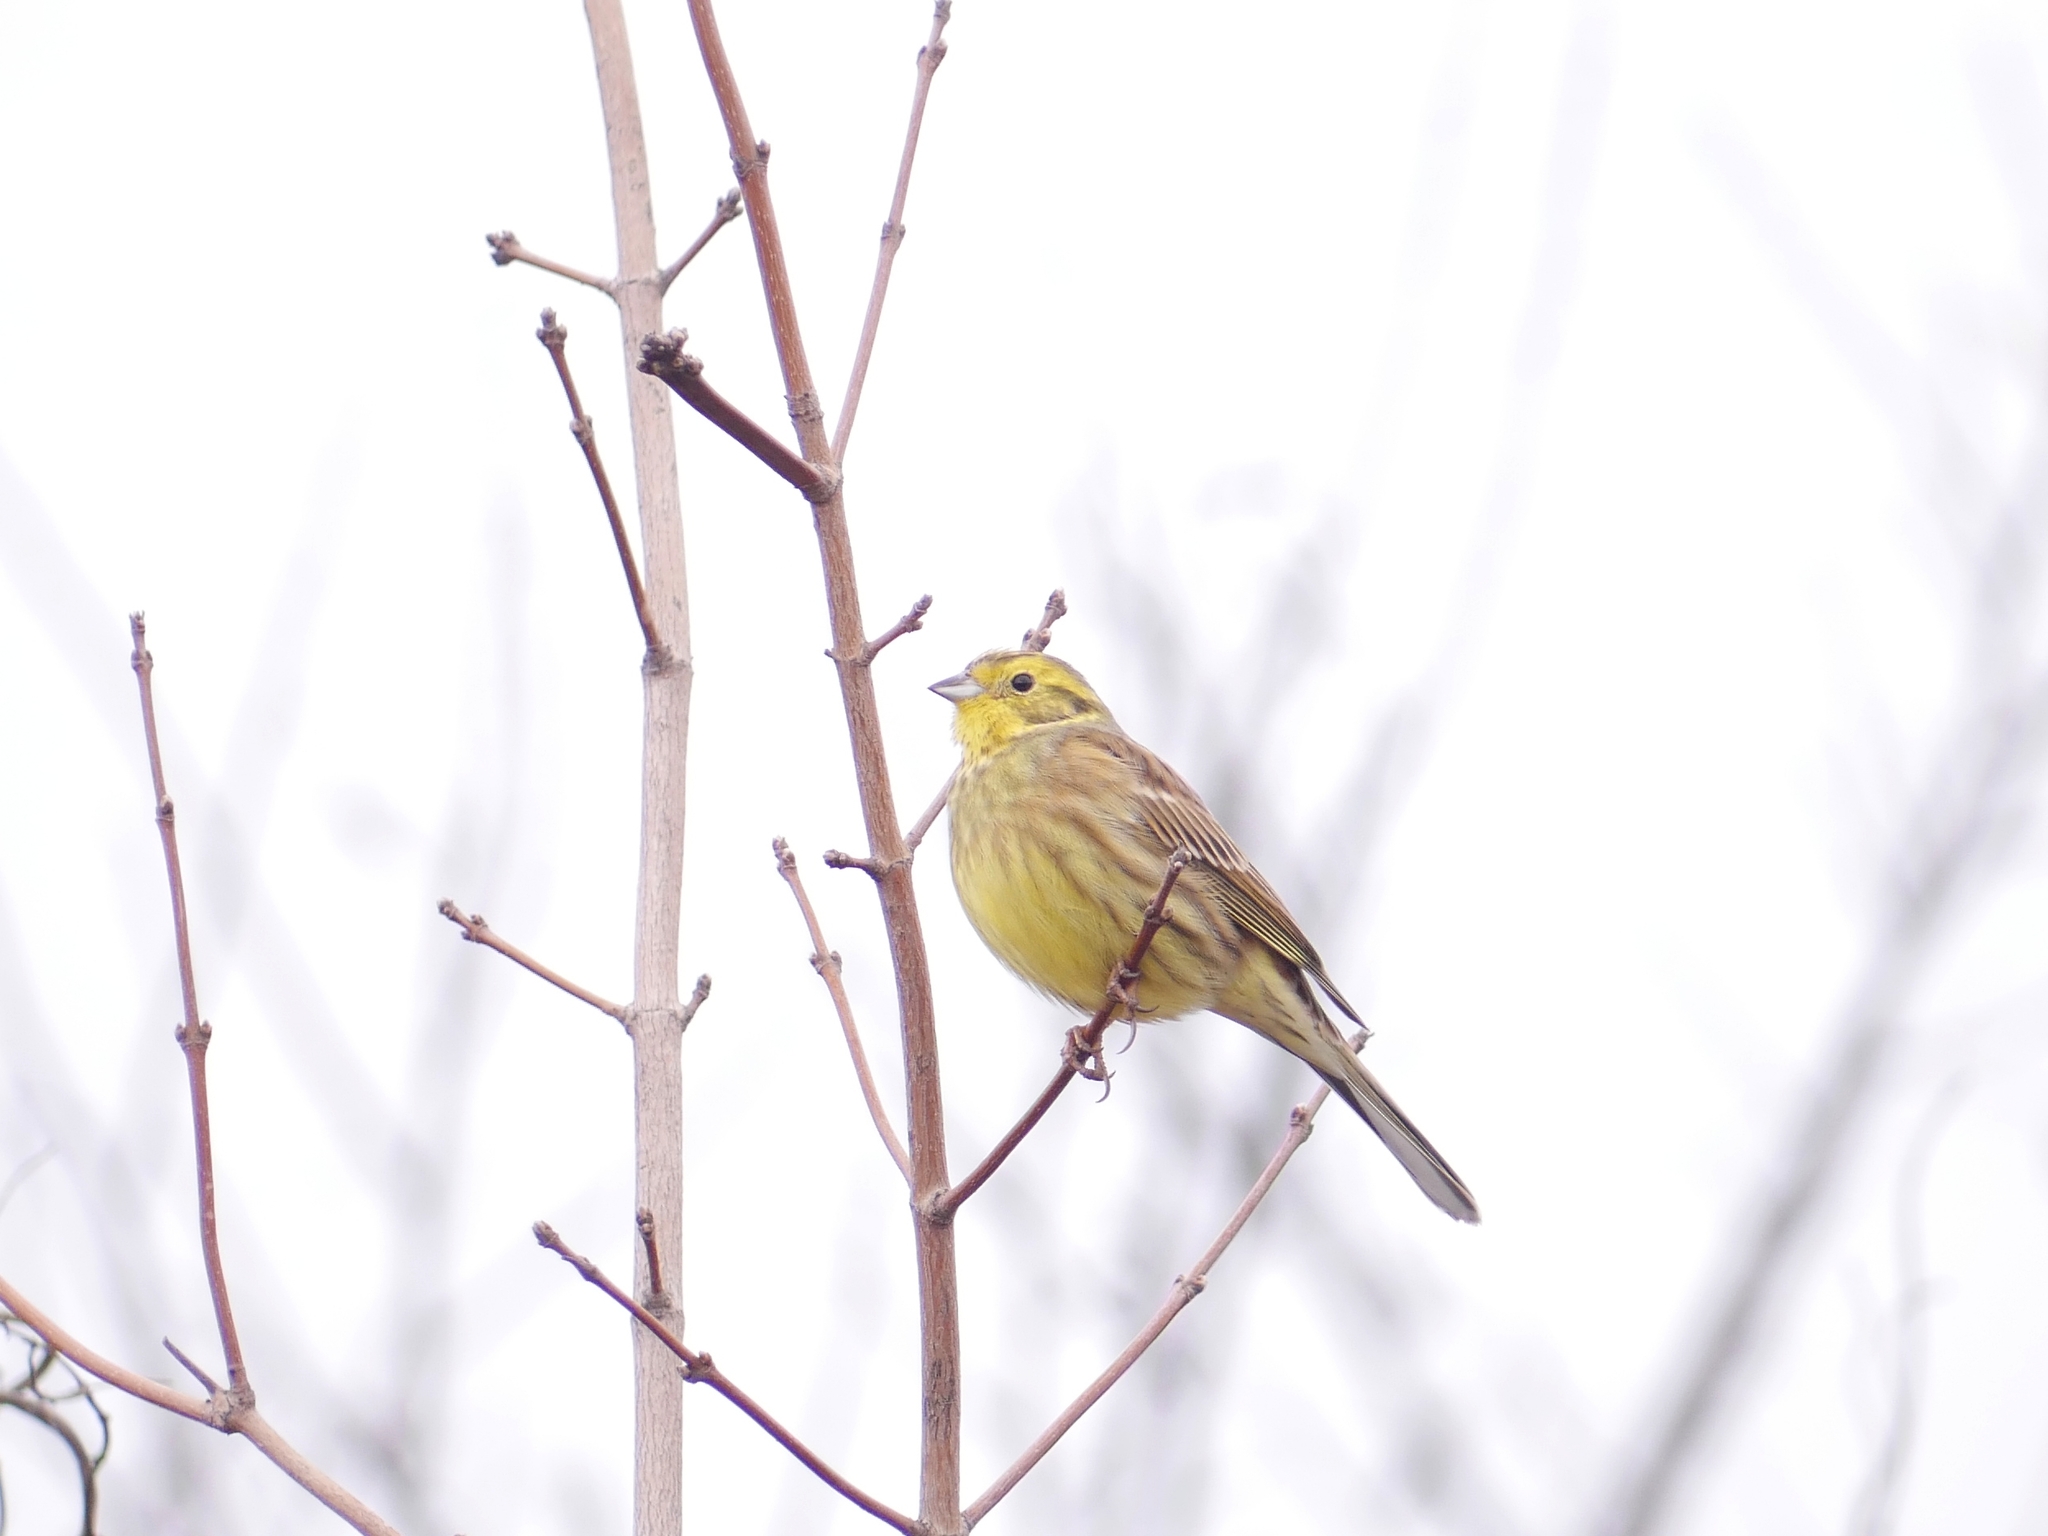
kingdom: Animalia
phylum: Chordata
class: Aves
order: Passeriformes
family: Emberizidae
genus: Emberiza
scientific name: Emberiza citrinella
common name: Yellowhammer
